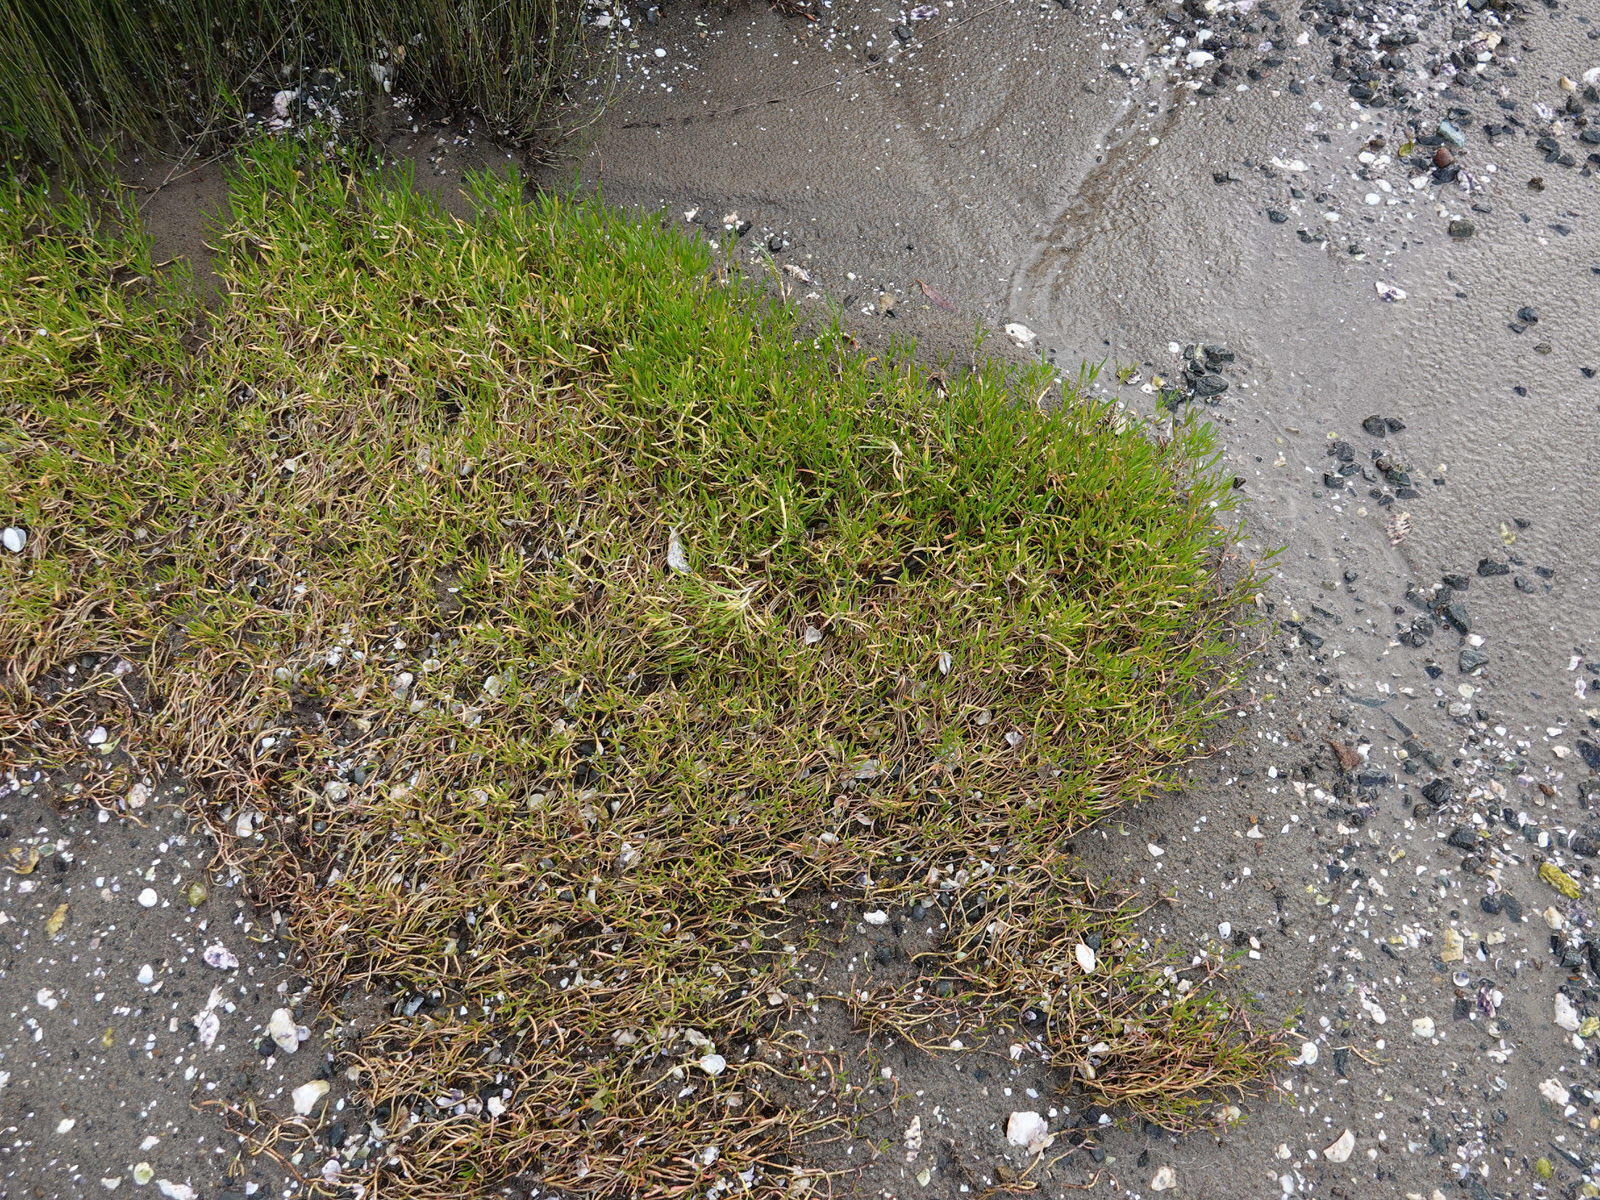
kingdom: Plantae
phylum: Tracheophyta
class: Magnoliopsida
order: Asterales
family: Asteraceae
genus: Cotula
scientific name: Cotula coronopifolia
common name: Buttonweed
